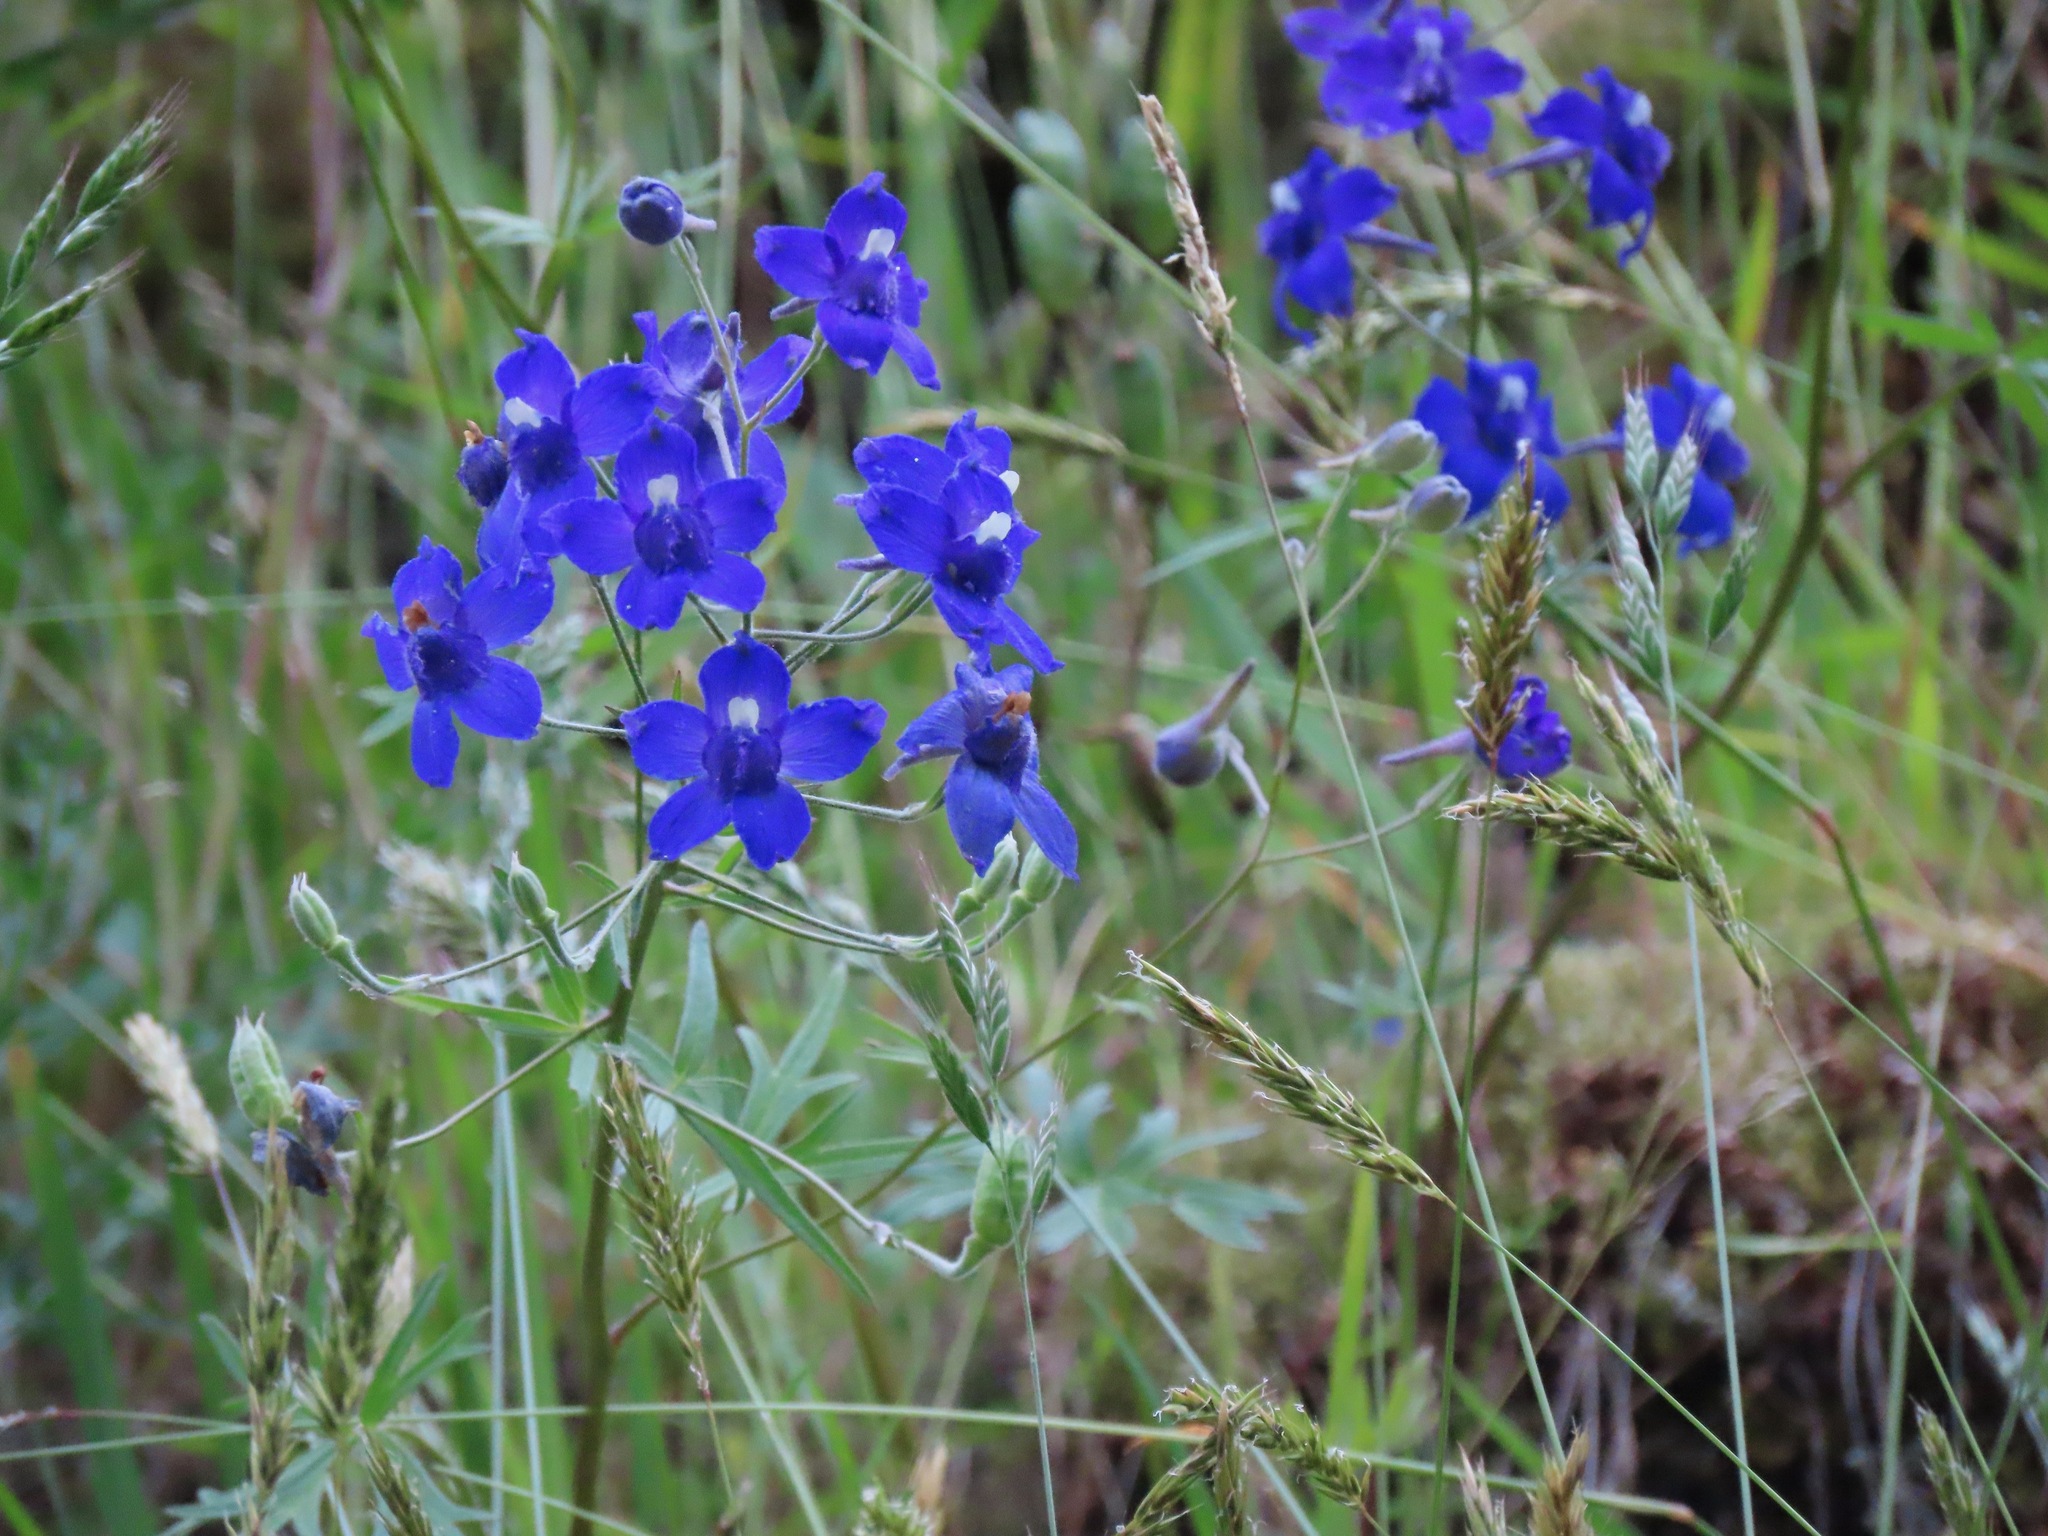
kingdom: Plantae
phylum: Tracheophyta
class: Magnoliopsida
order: Ranunculales
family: Ranunculaceae
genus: Delphinium
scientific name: Delphinium menziesii
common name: Menzies's larkspur
